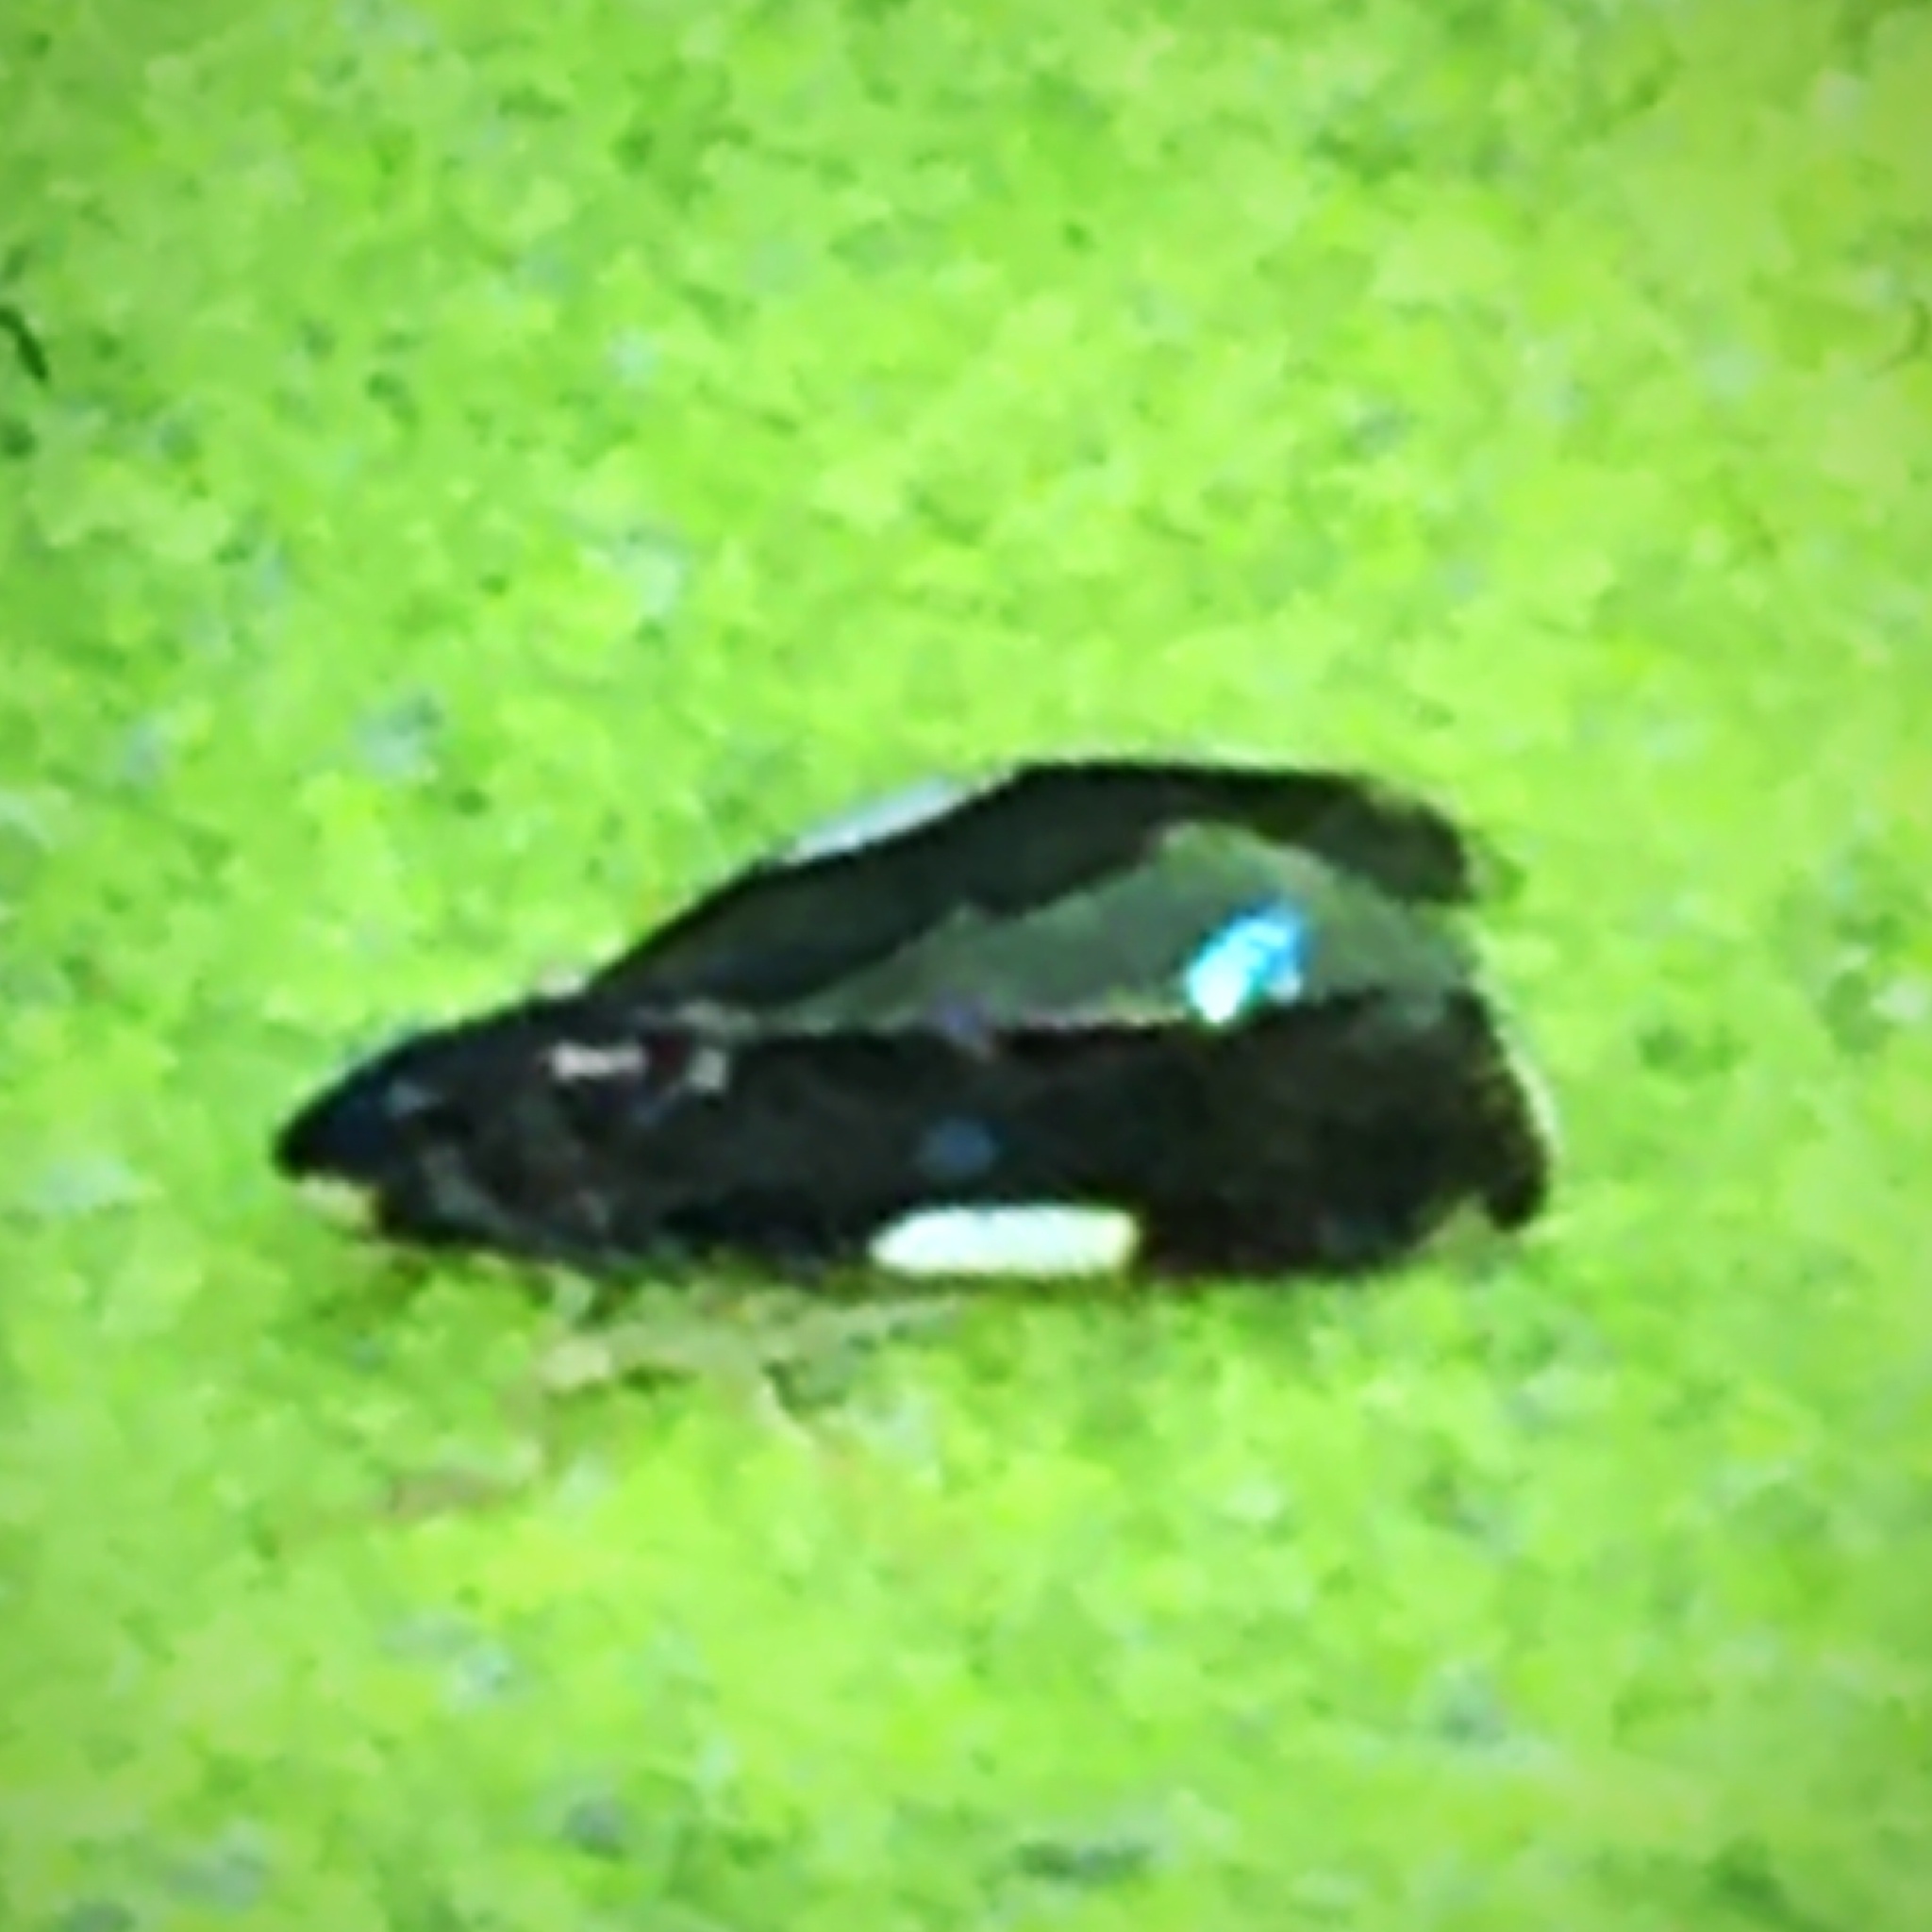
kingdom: Animalia
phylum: Arthropoda
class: Insecta
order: Hemiptera
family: Cicadellidae
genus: Erythroneura
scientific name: Erythroneura infuscata
